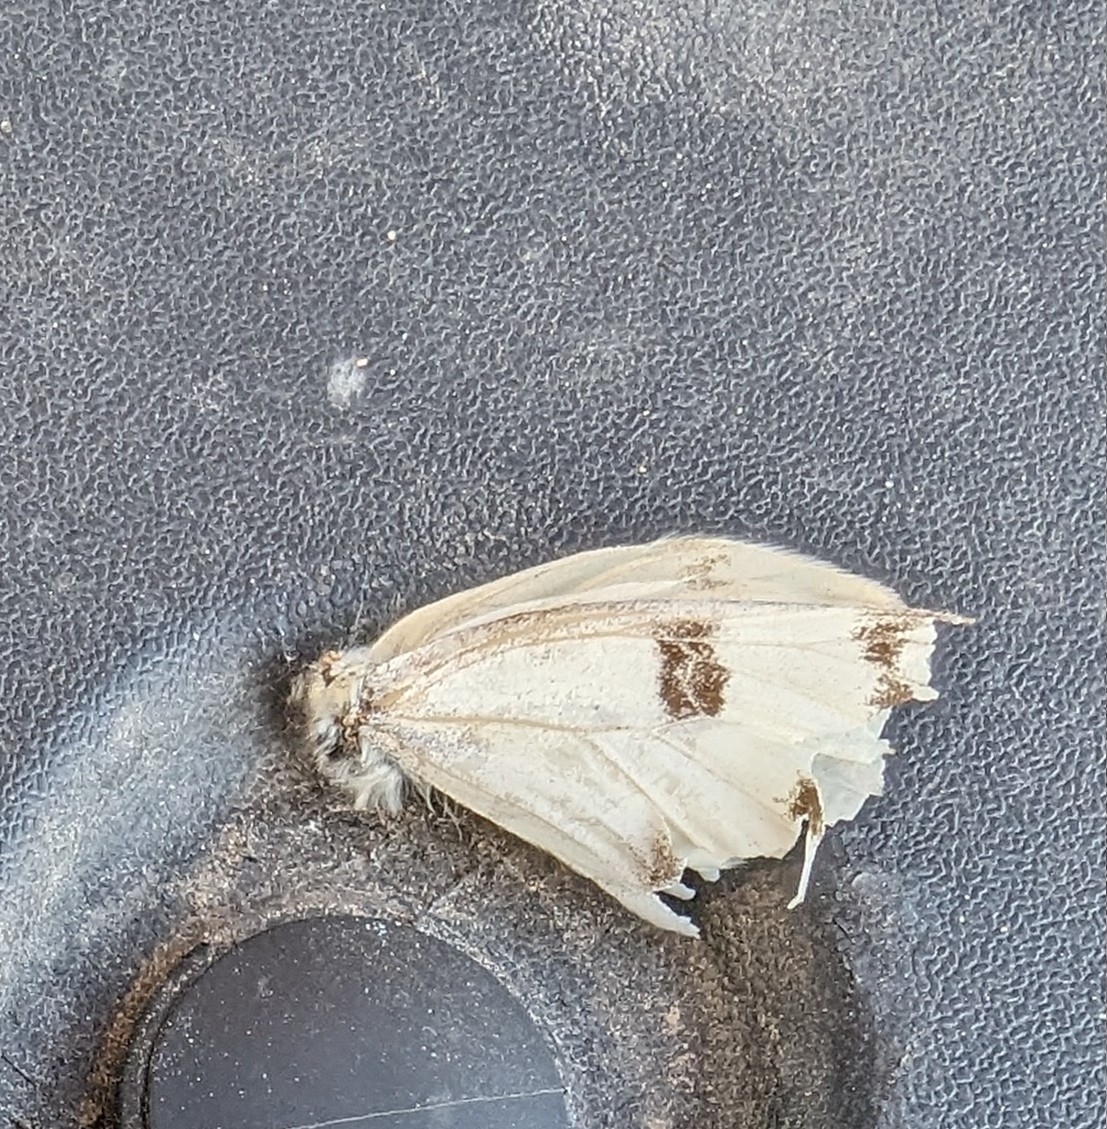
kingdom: Animalia
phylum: Arthropoda
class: Insecta
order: Lepidoptera
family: Pieridae
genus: Pontia
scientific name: Pontia protodice
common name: Checkered white
